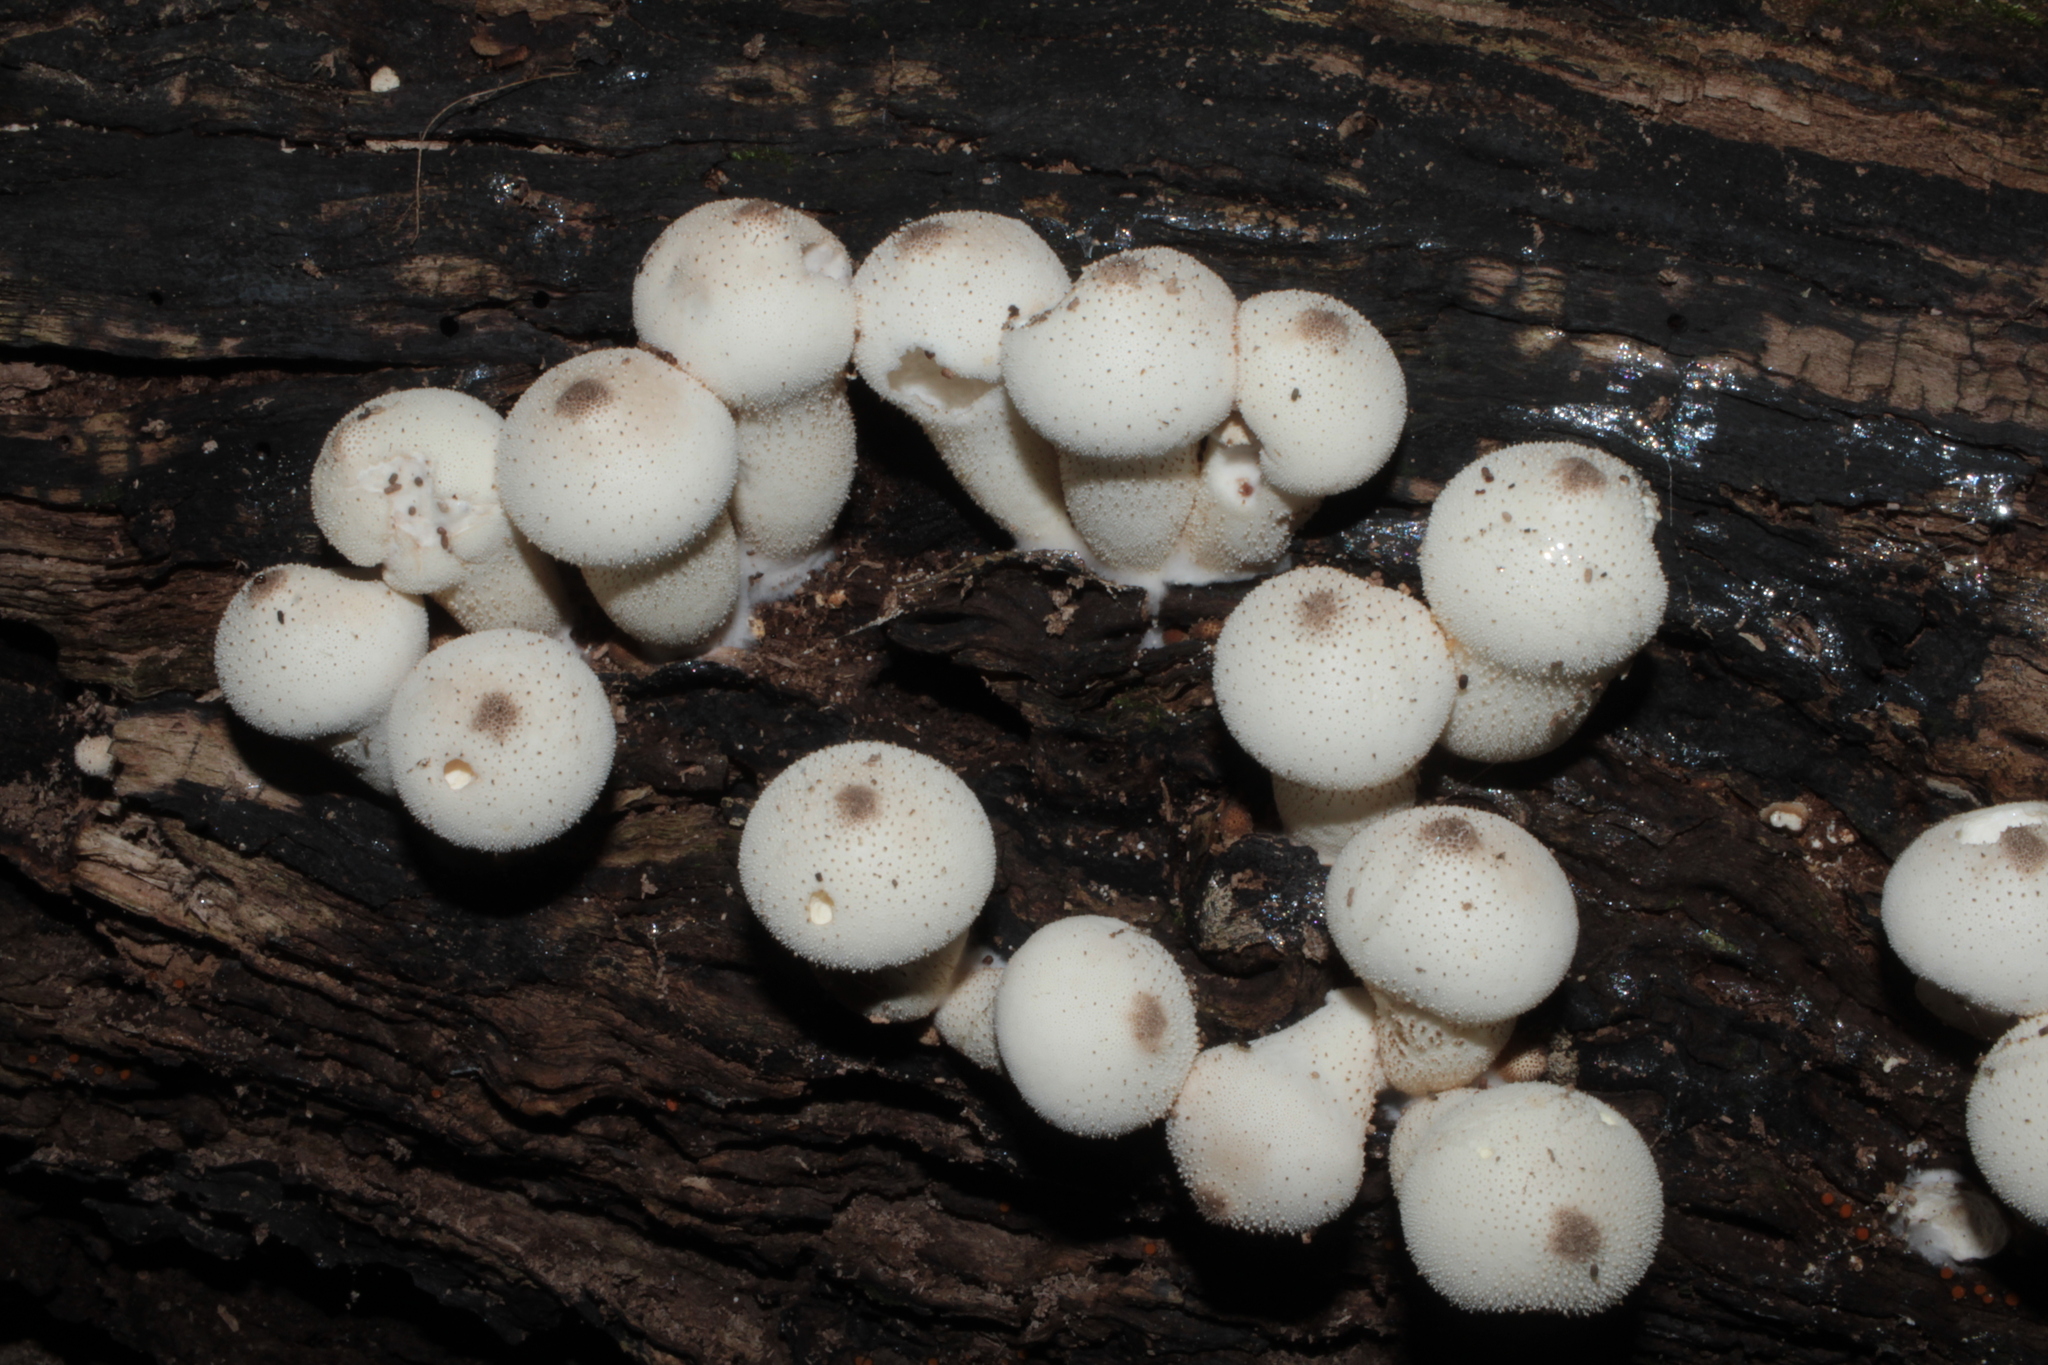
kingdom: Fungi
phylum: Basidiomycota
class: Agaricomycetes
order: Agaricales
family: Lycoperdaceae
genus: Lycoperdon
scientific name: Lycoperdon perlatum
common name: Common puffball
